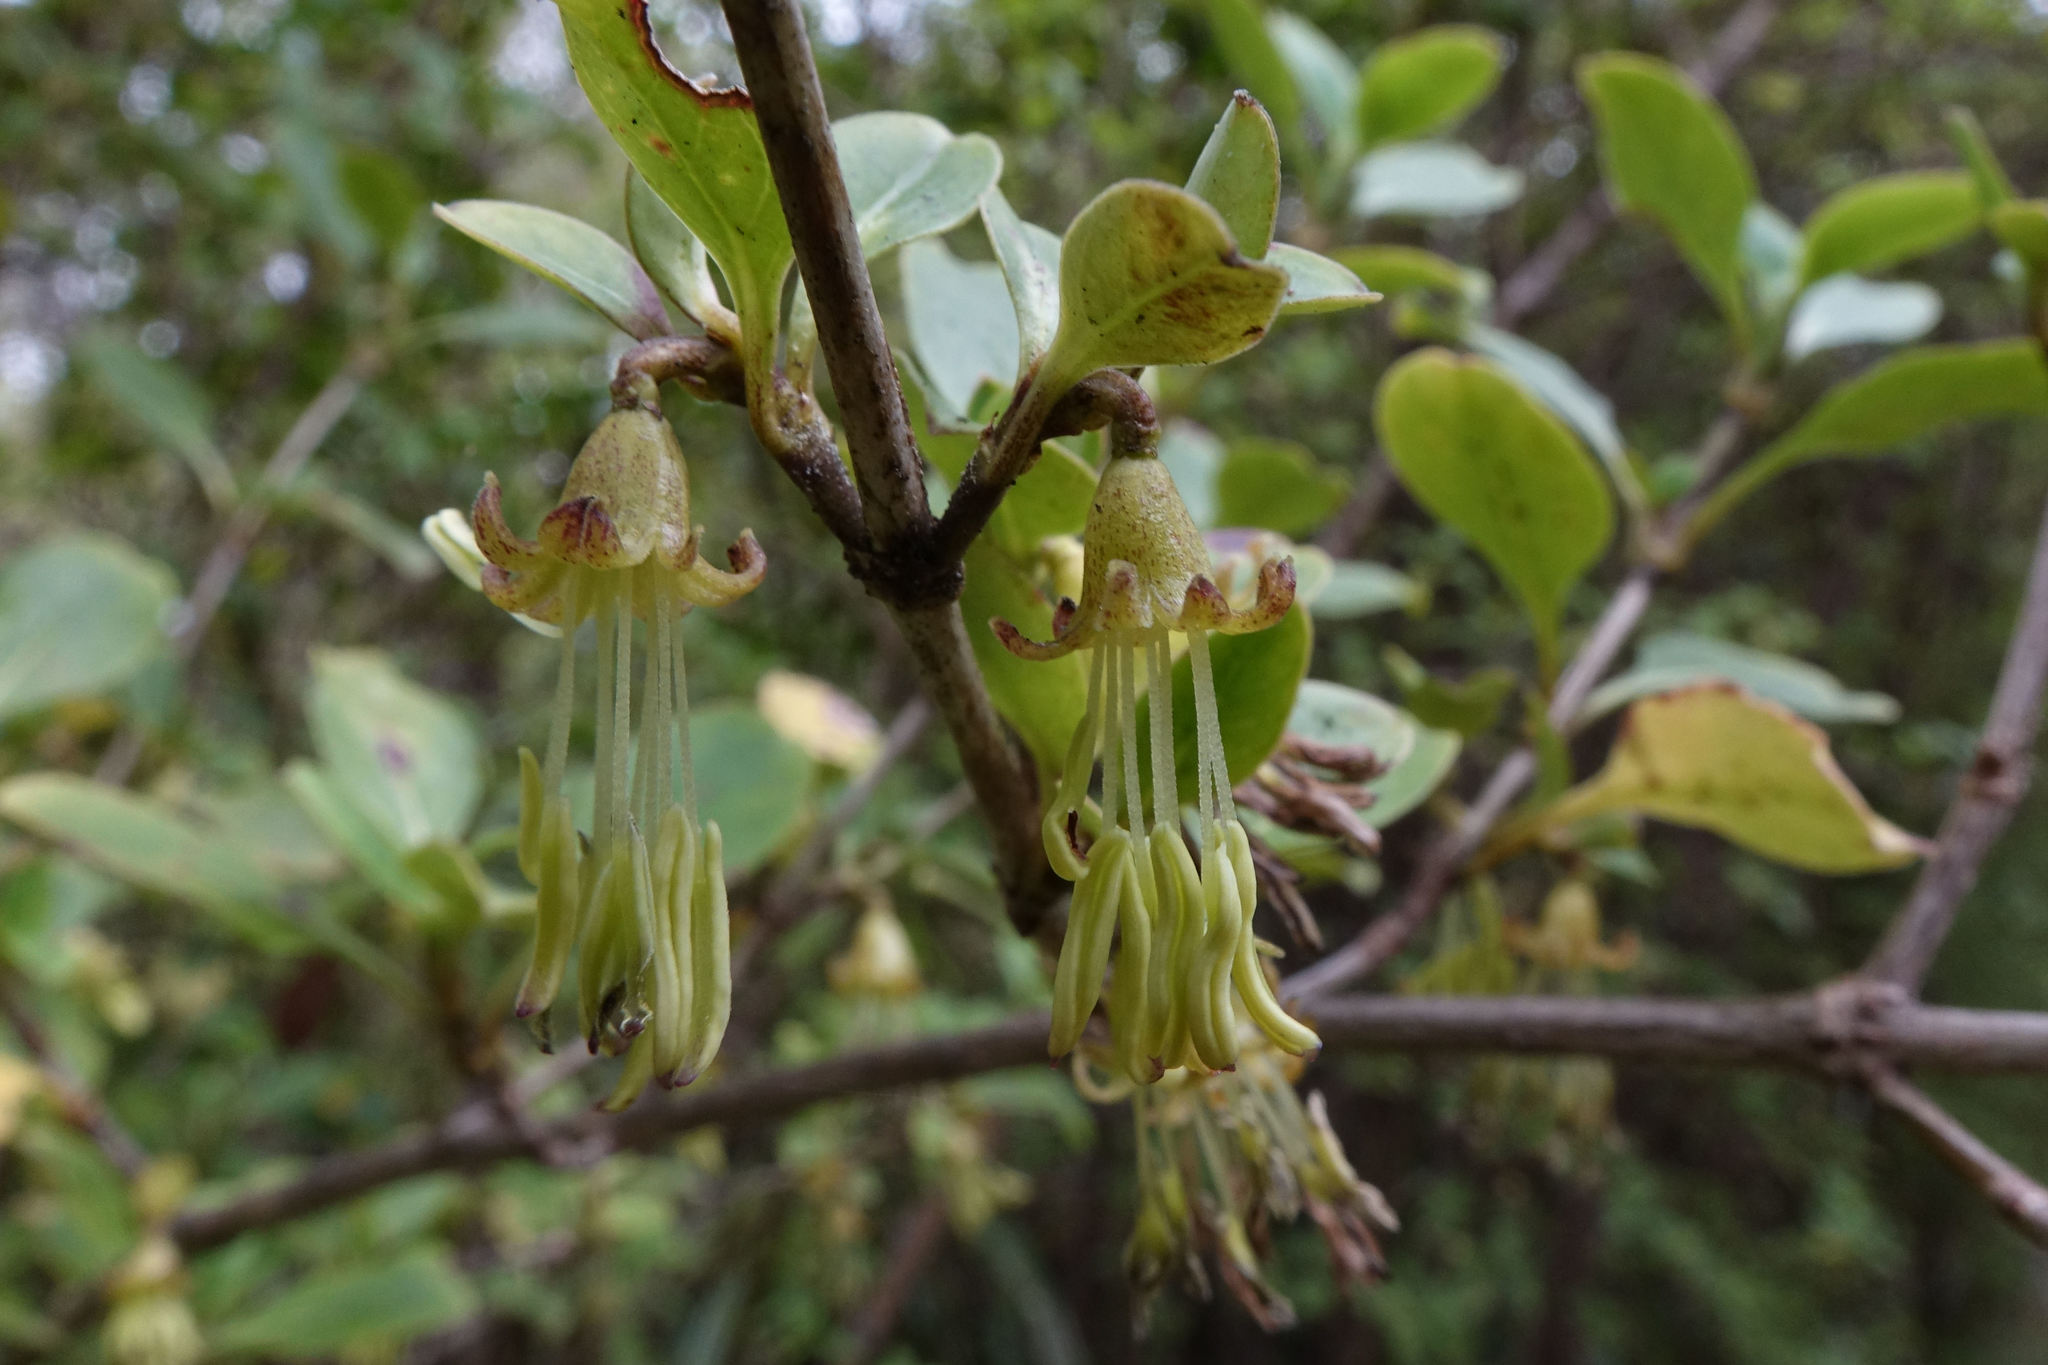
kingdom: Plantae
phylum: Tracheophyta
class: Magnoliopsida
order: Gentianales
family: Rubiaceae
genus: Coprosma
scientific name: Coprosma foetidissima
